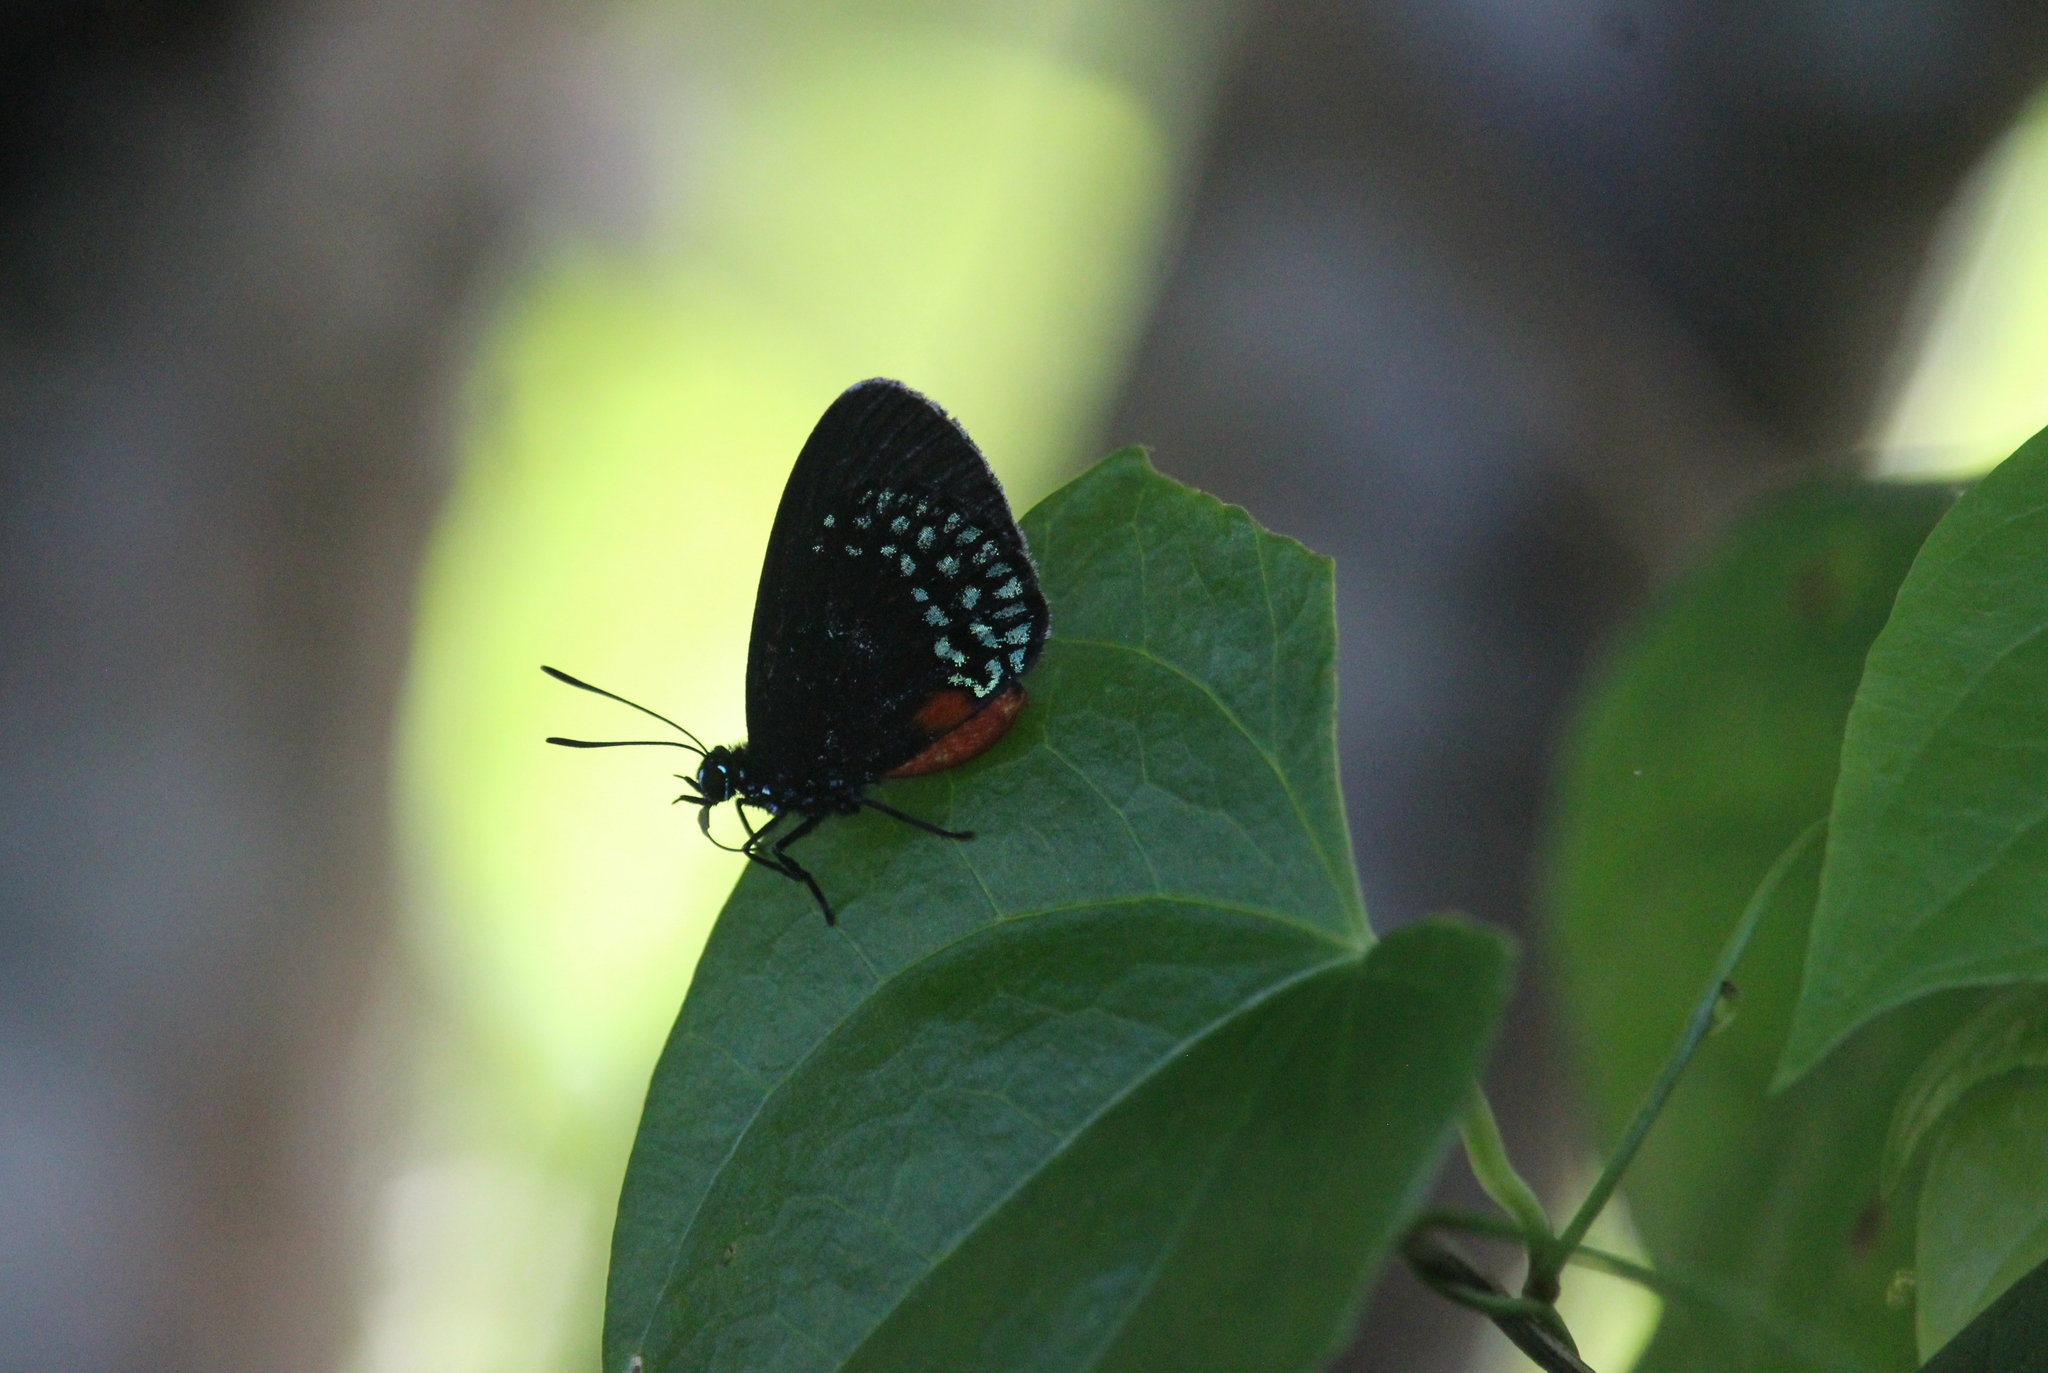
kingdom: Animalia
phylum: Arthropoda
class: Insecta
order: Lepidoptera
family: Lycaenidae
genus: Eumaeus
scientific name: Eumaeus toxea
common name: Mexican cycadian
